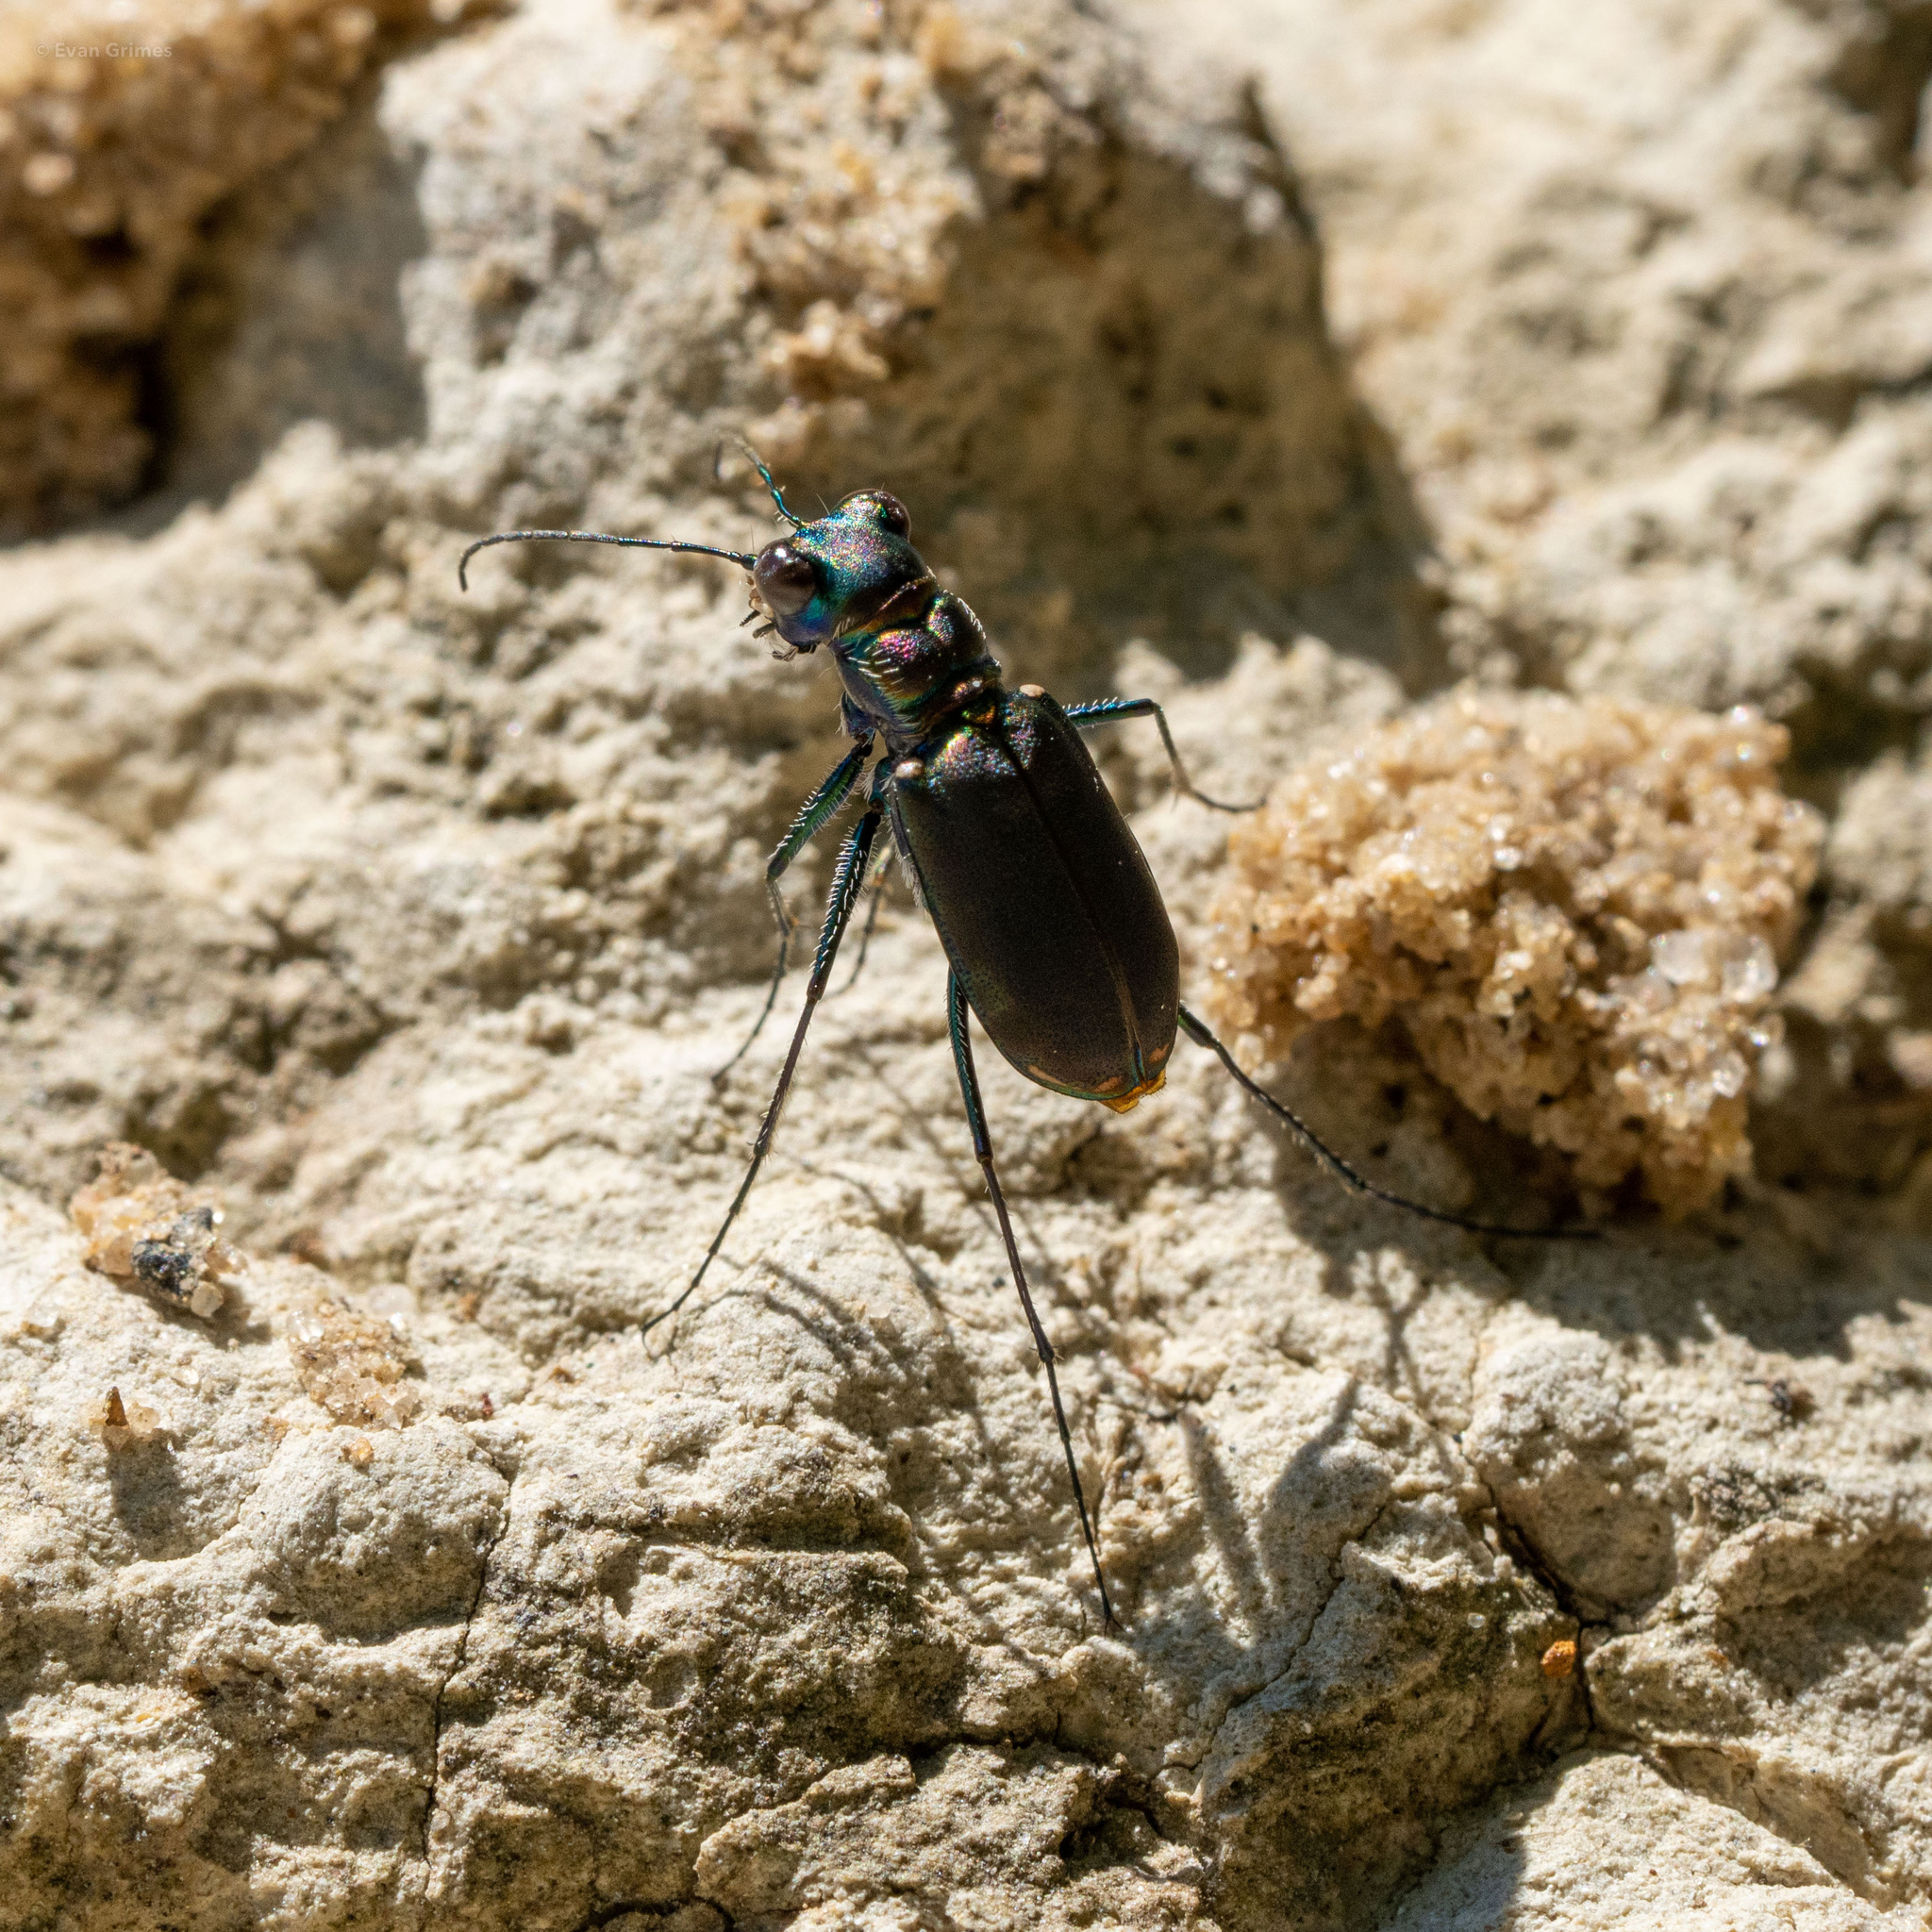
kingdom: Animalia
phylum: Arthropoda
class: Insecta
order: Coleoptera
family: Carabidae
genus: Cicindela
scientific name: Cicindela rufiventris
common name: Eastern red-bellied tiger beetle
